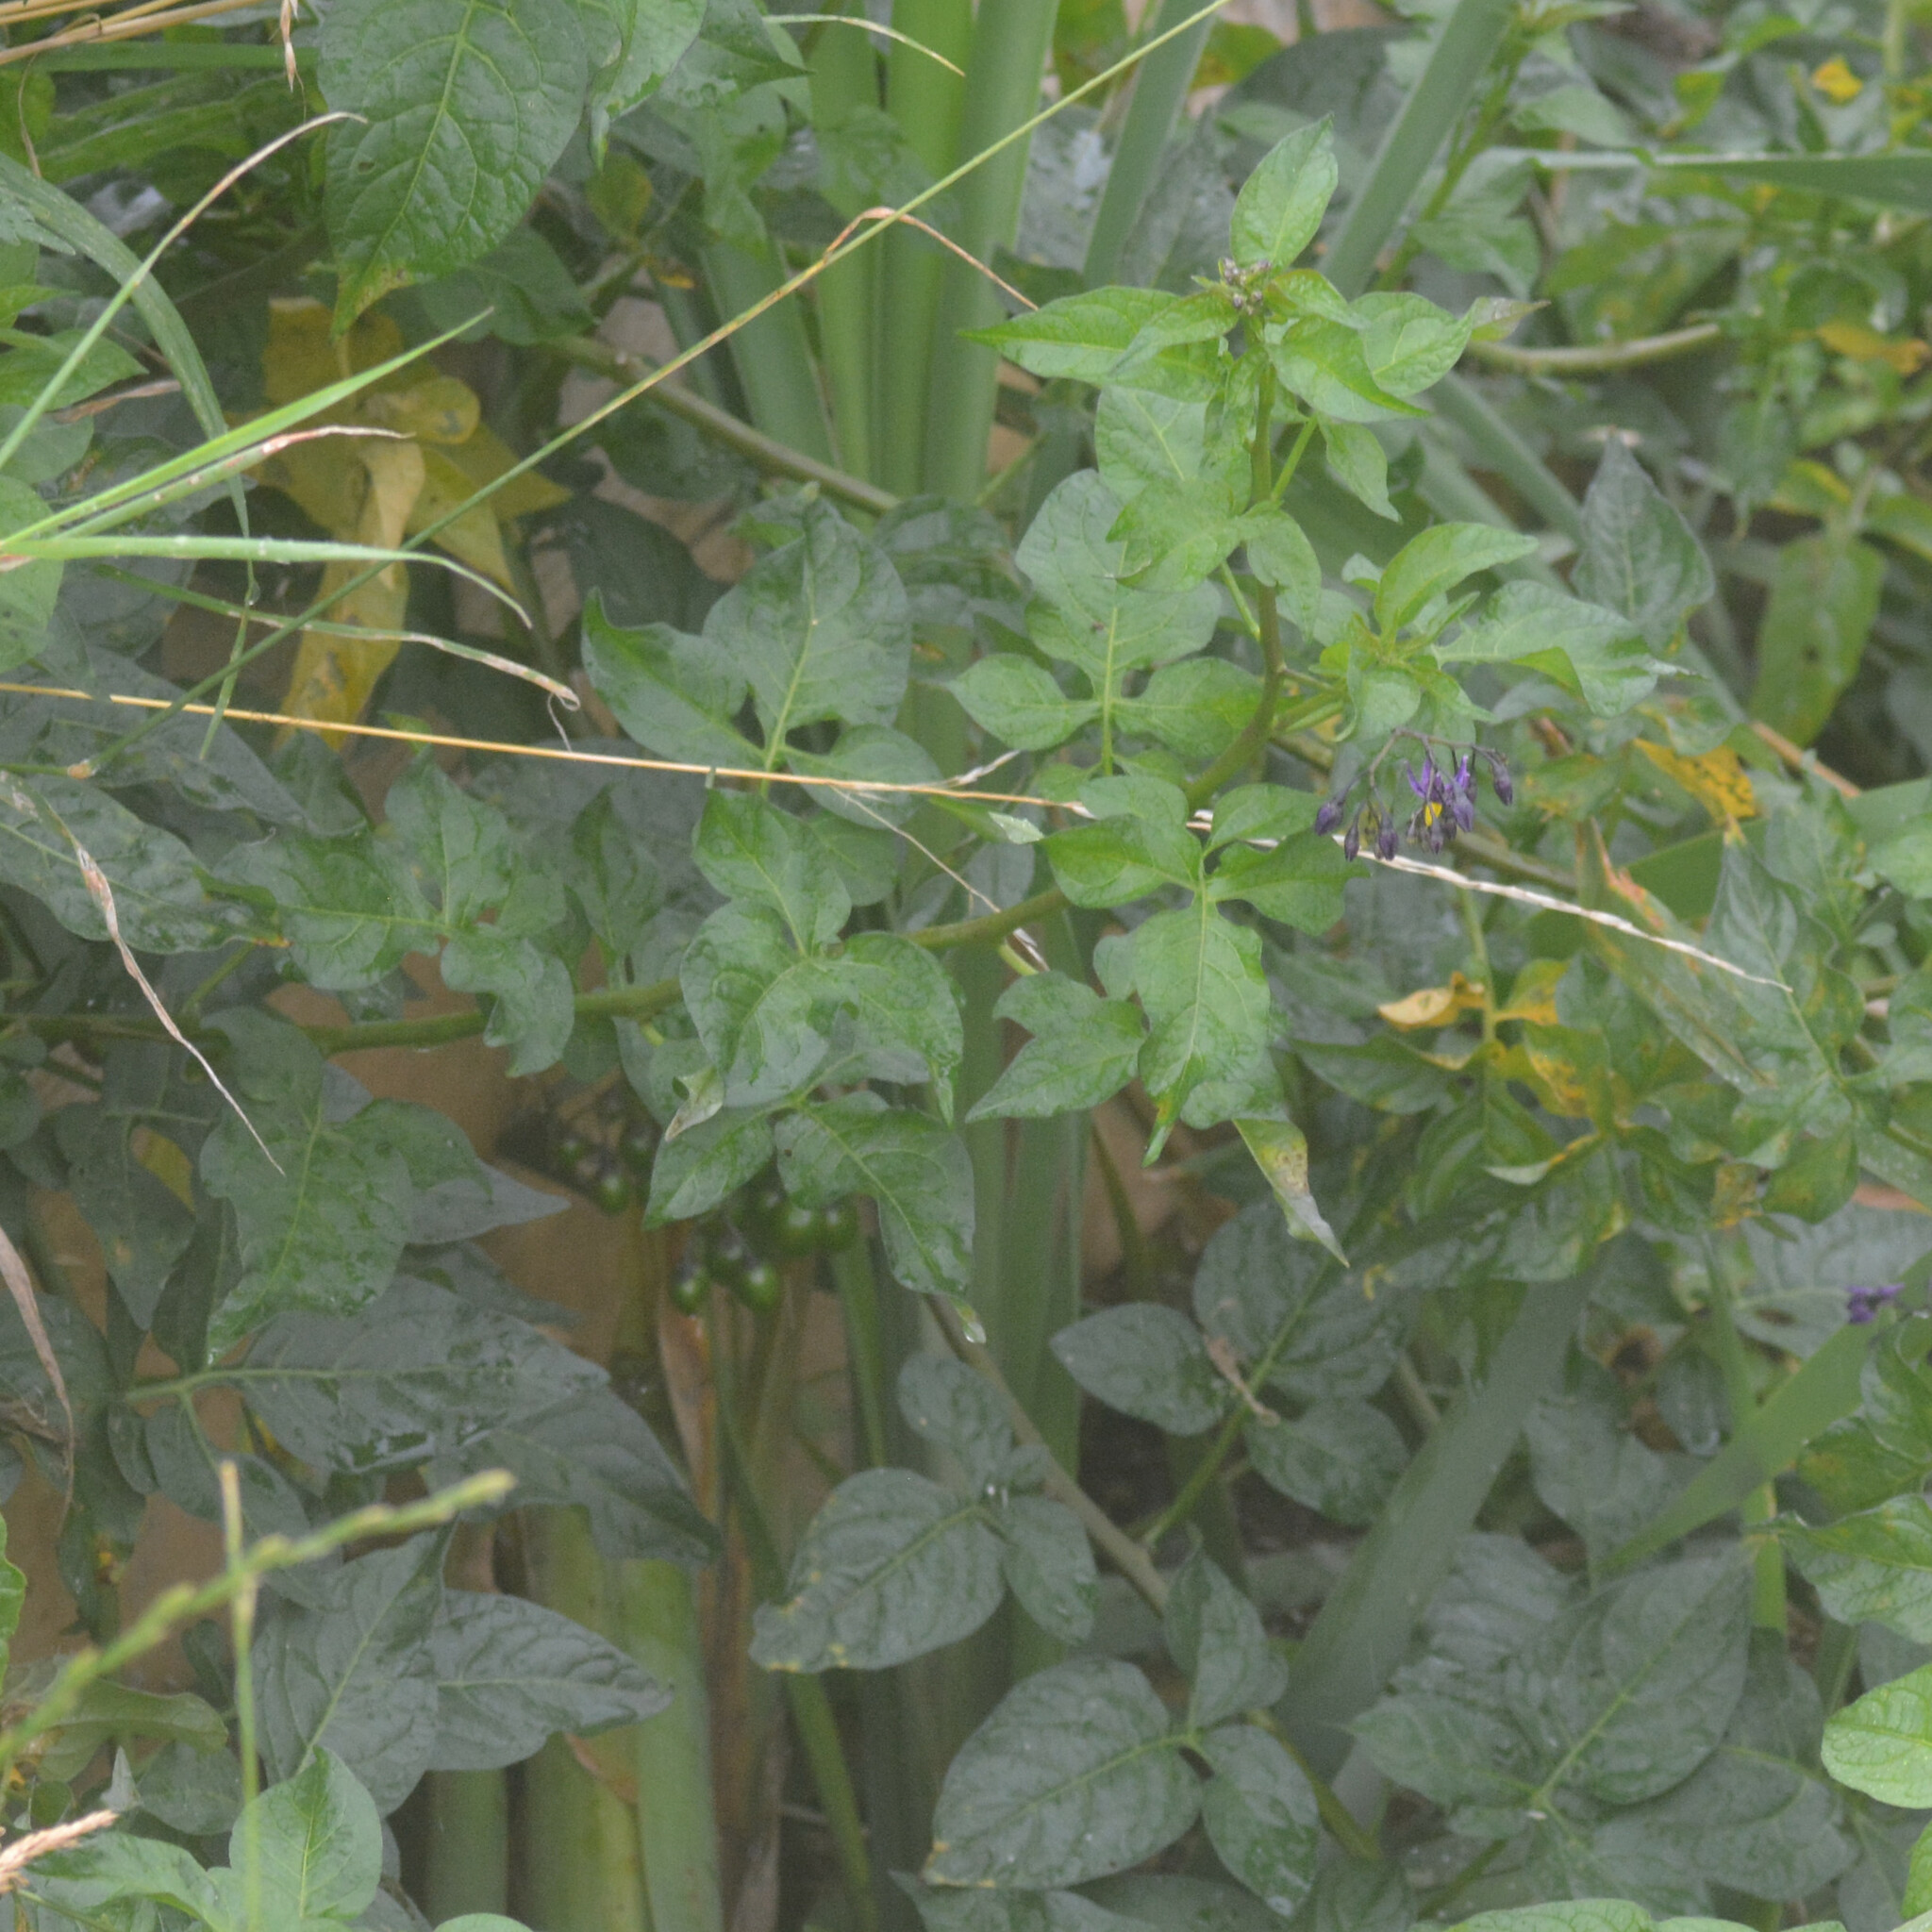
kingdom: Plantae
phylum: Tracheophyta
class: Magnoliopsida
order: Solanales
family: Solanaceae
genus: Solanum
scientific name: Solanum dulcamara
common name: Climbing nightshade
